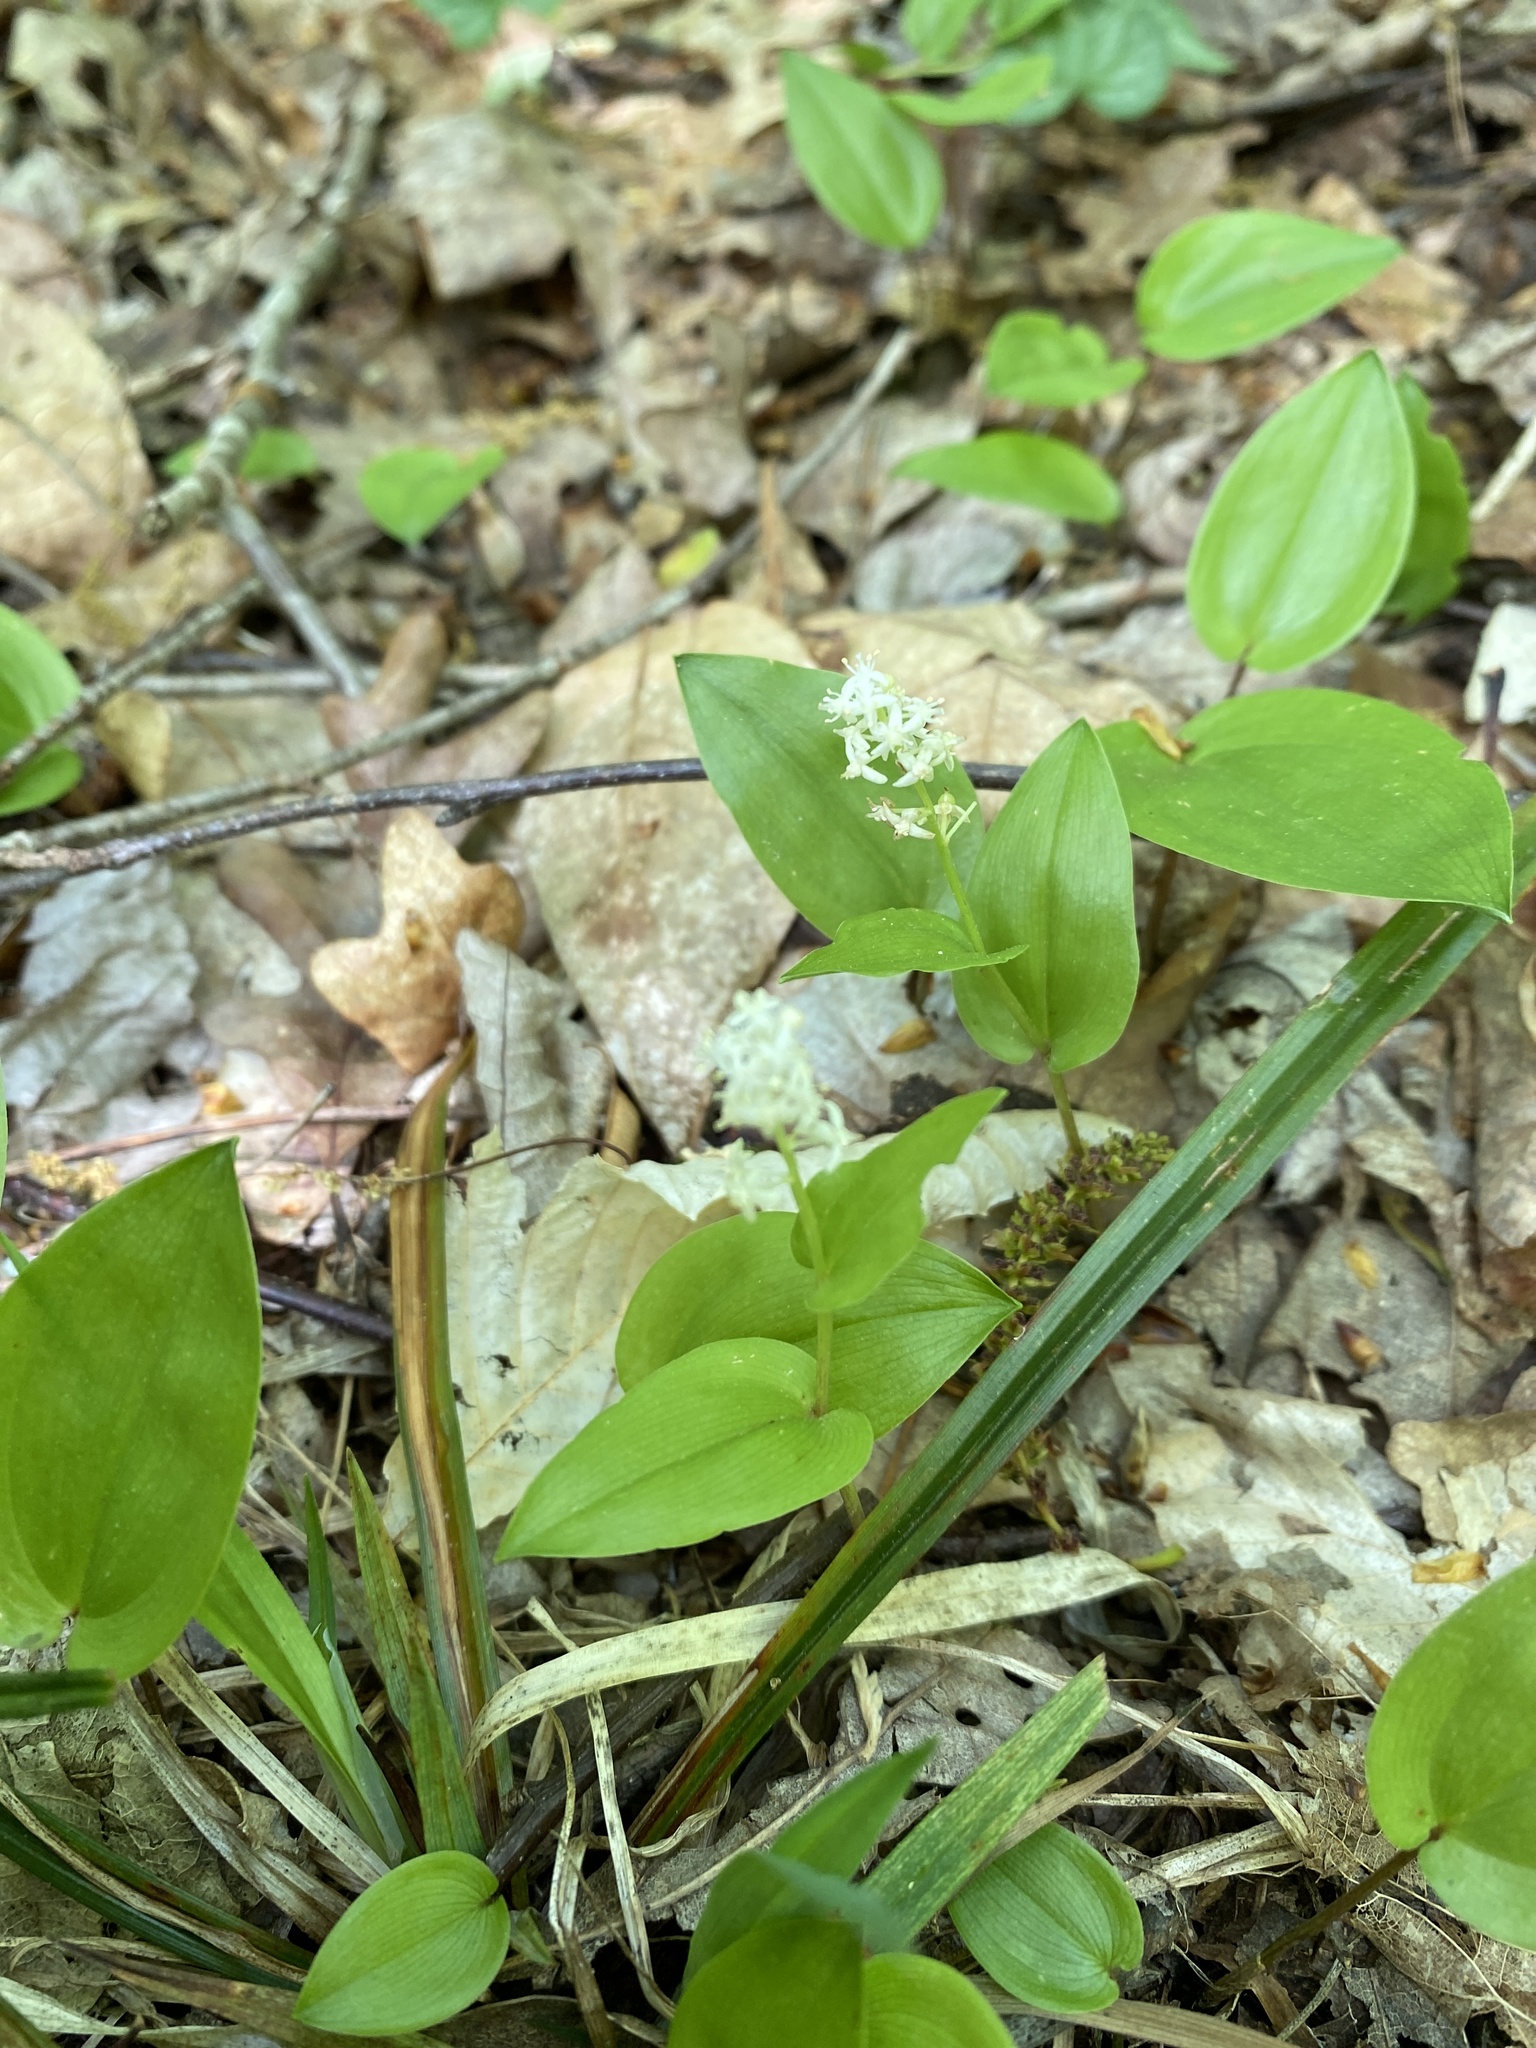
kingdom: Plantae
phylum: Tracheophyta
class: Liliopsida
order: Asparagales
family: Asparagaceae
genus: Maianthemum
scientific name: Maianthemum canadense
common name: False lily-of-the-valley
